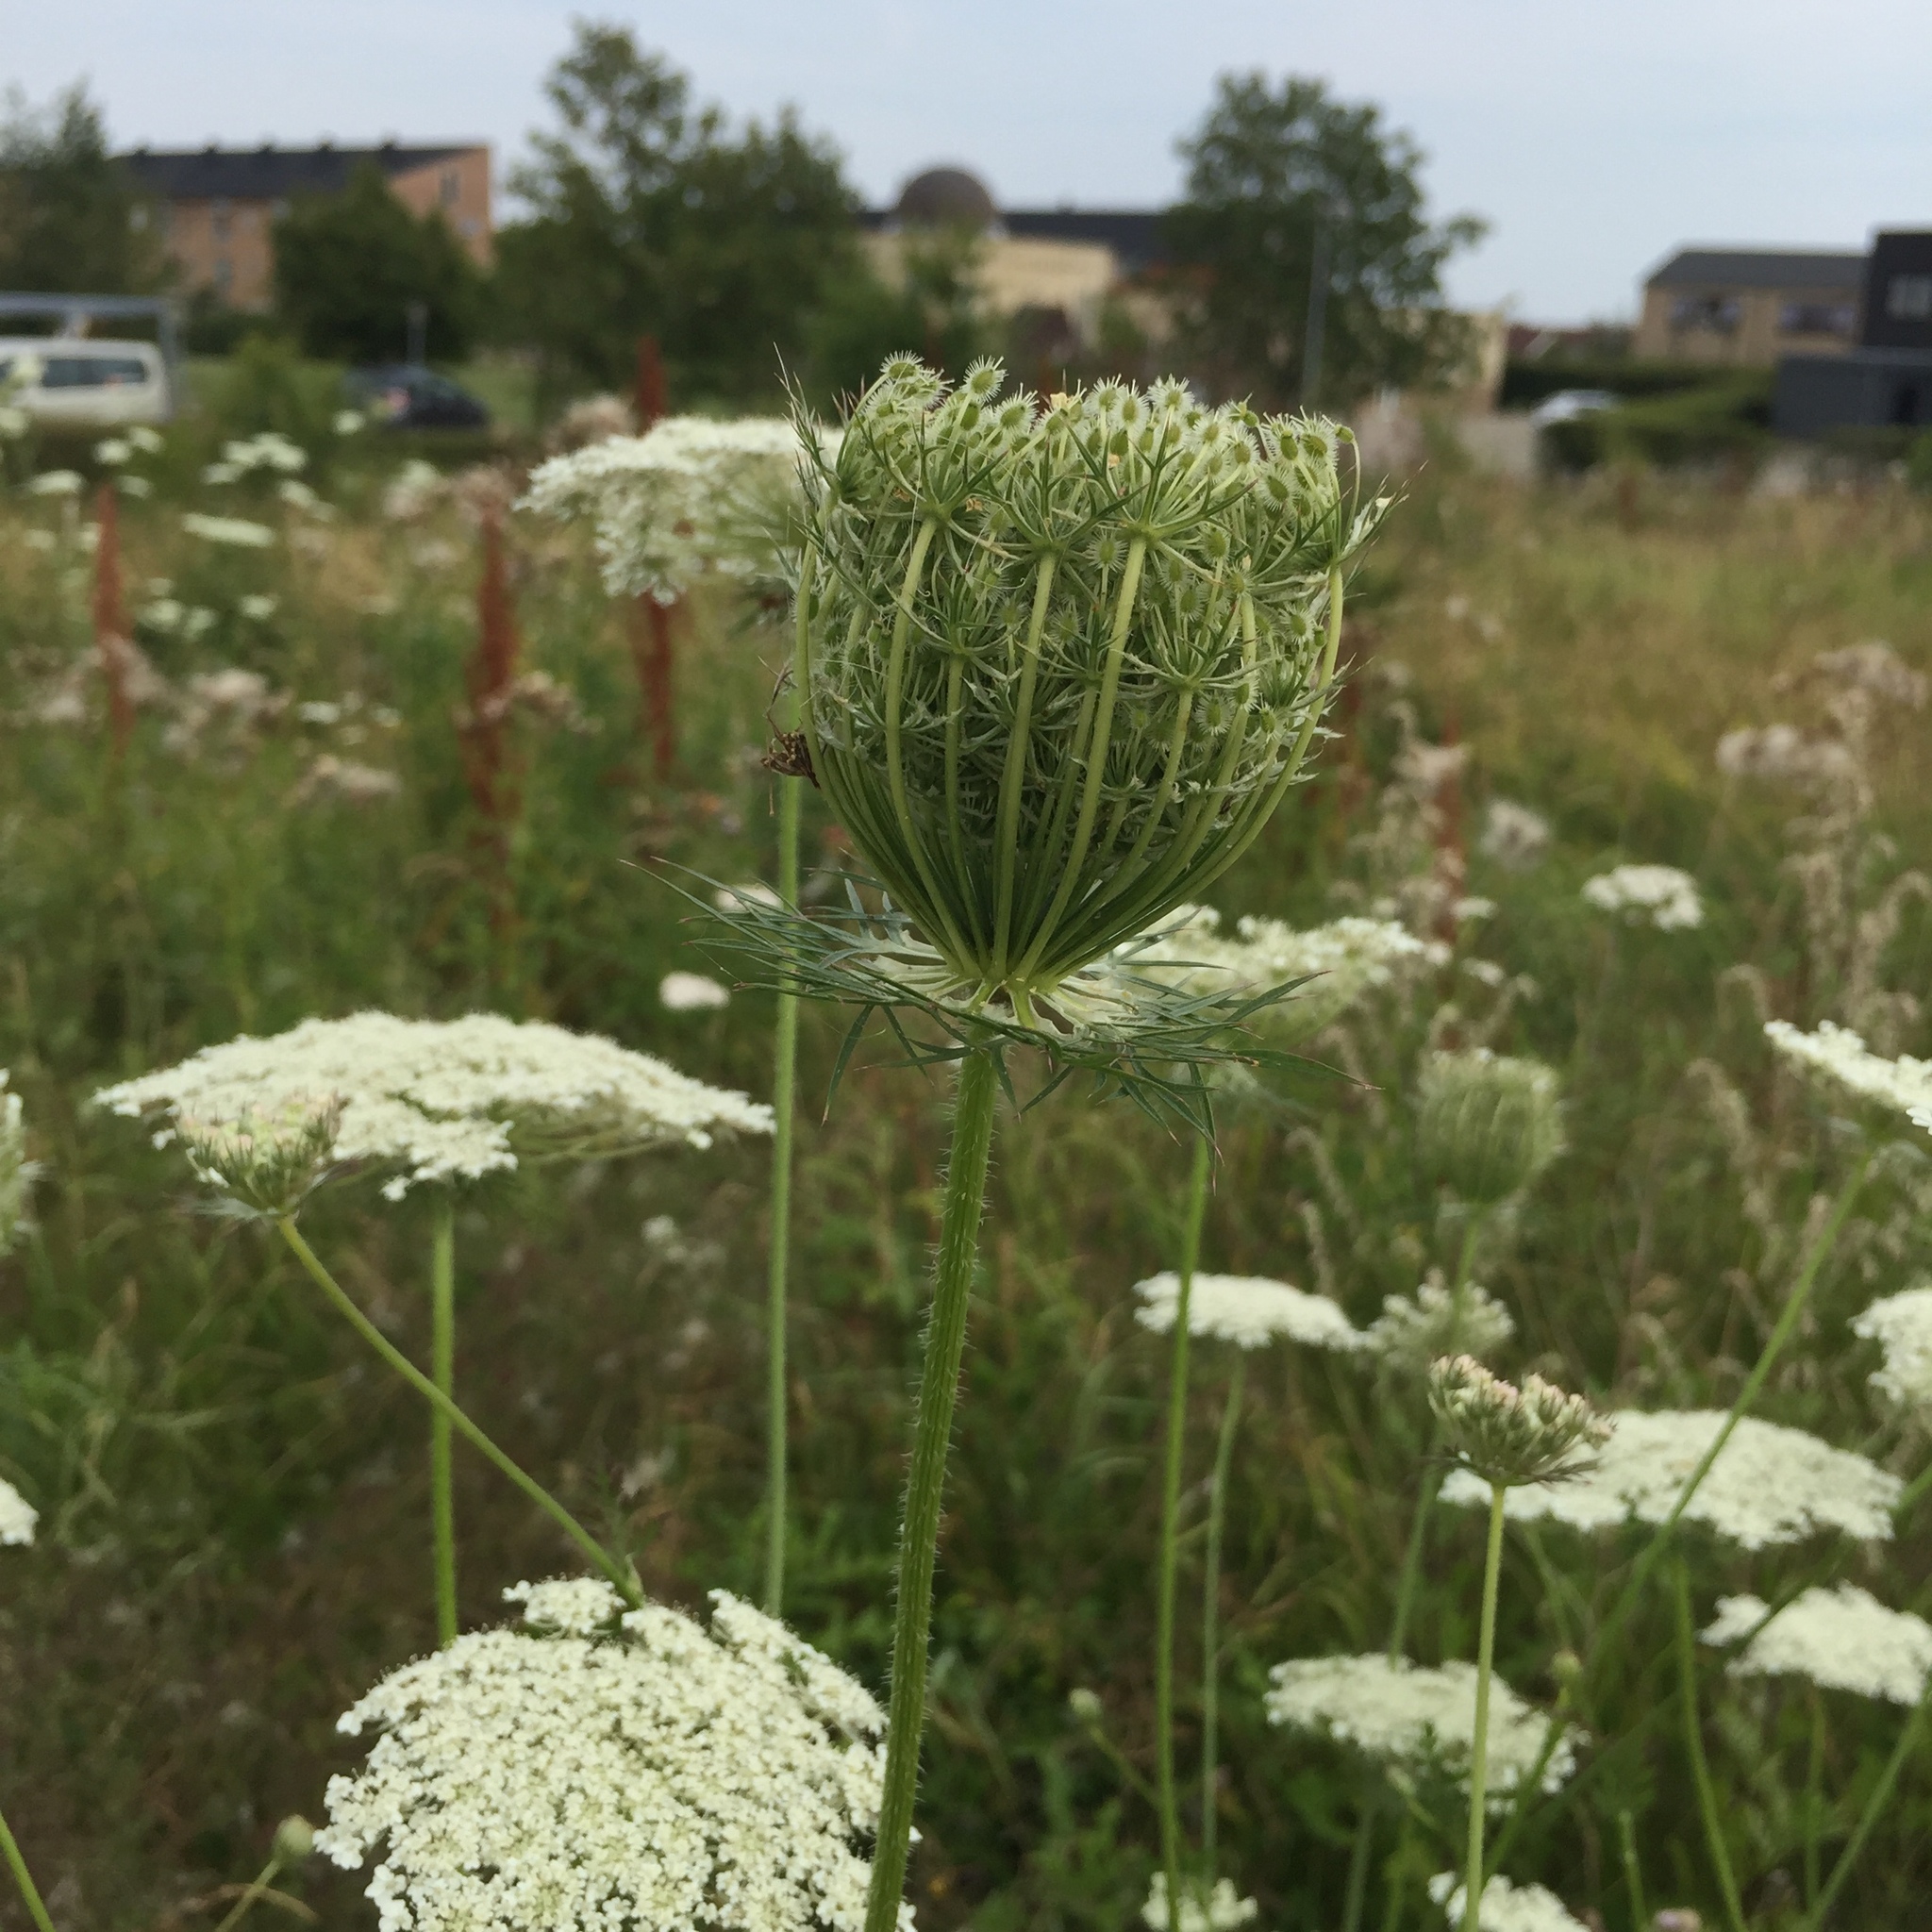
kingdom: Plantae
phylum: Tracheophyta
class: Magnoliopsida
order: Apiales
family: Apiaceae
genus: Daucus
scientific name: Daucus carota
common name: Wild carrot
